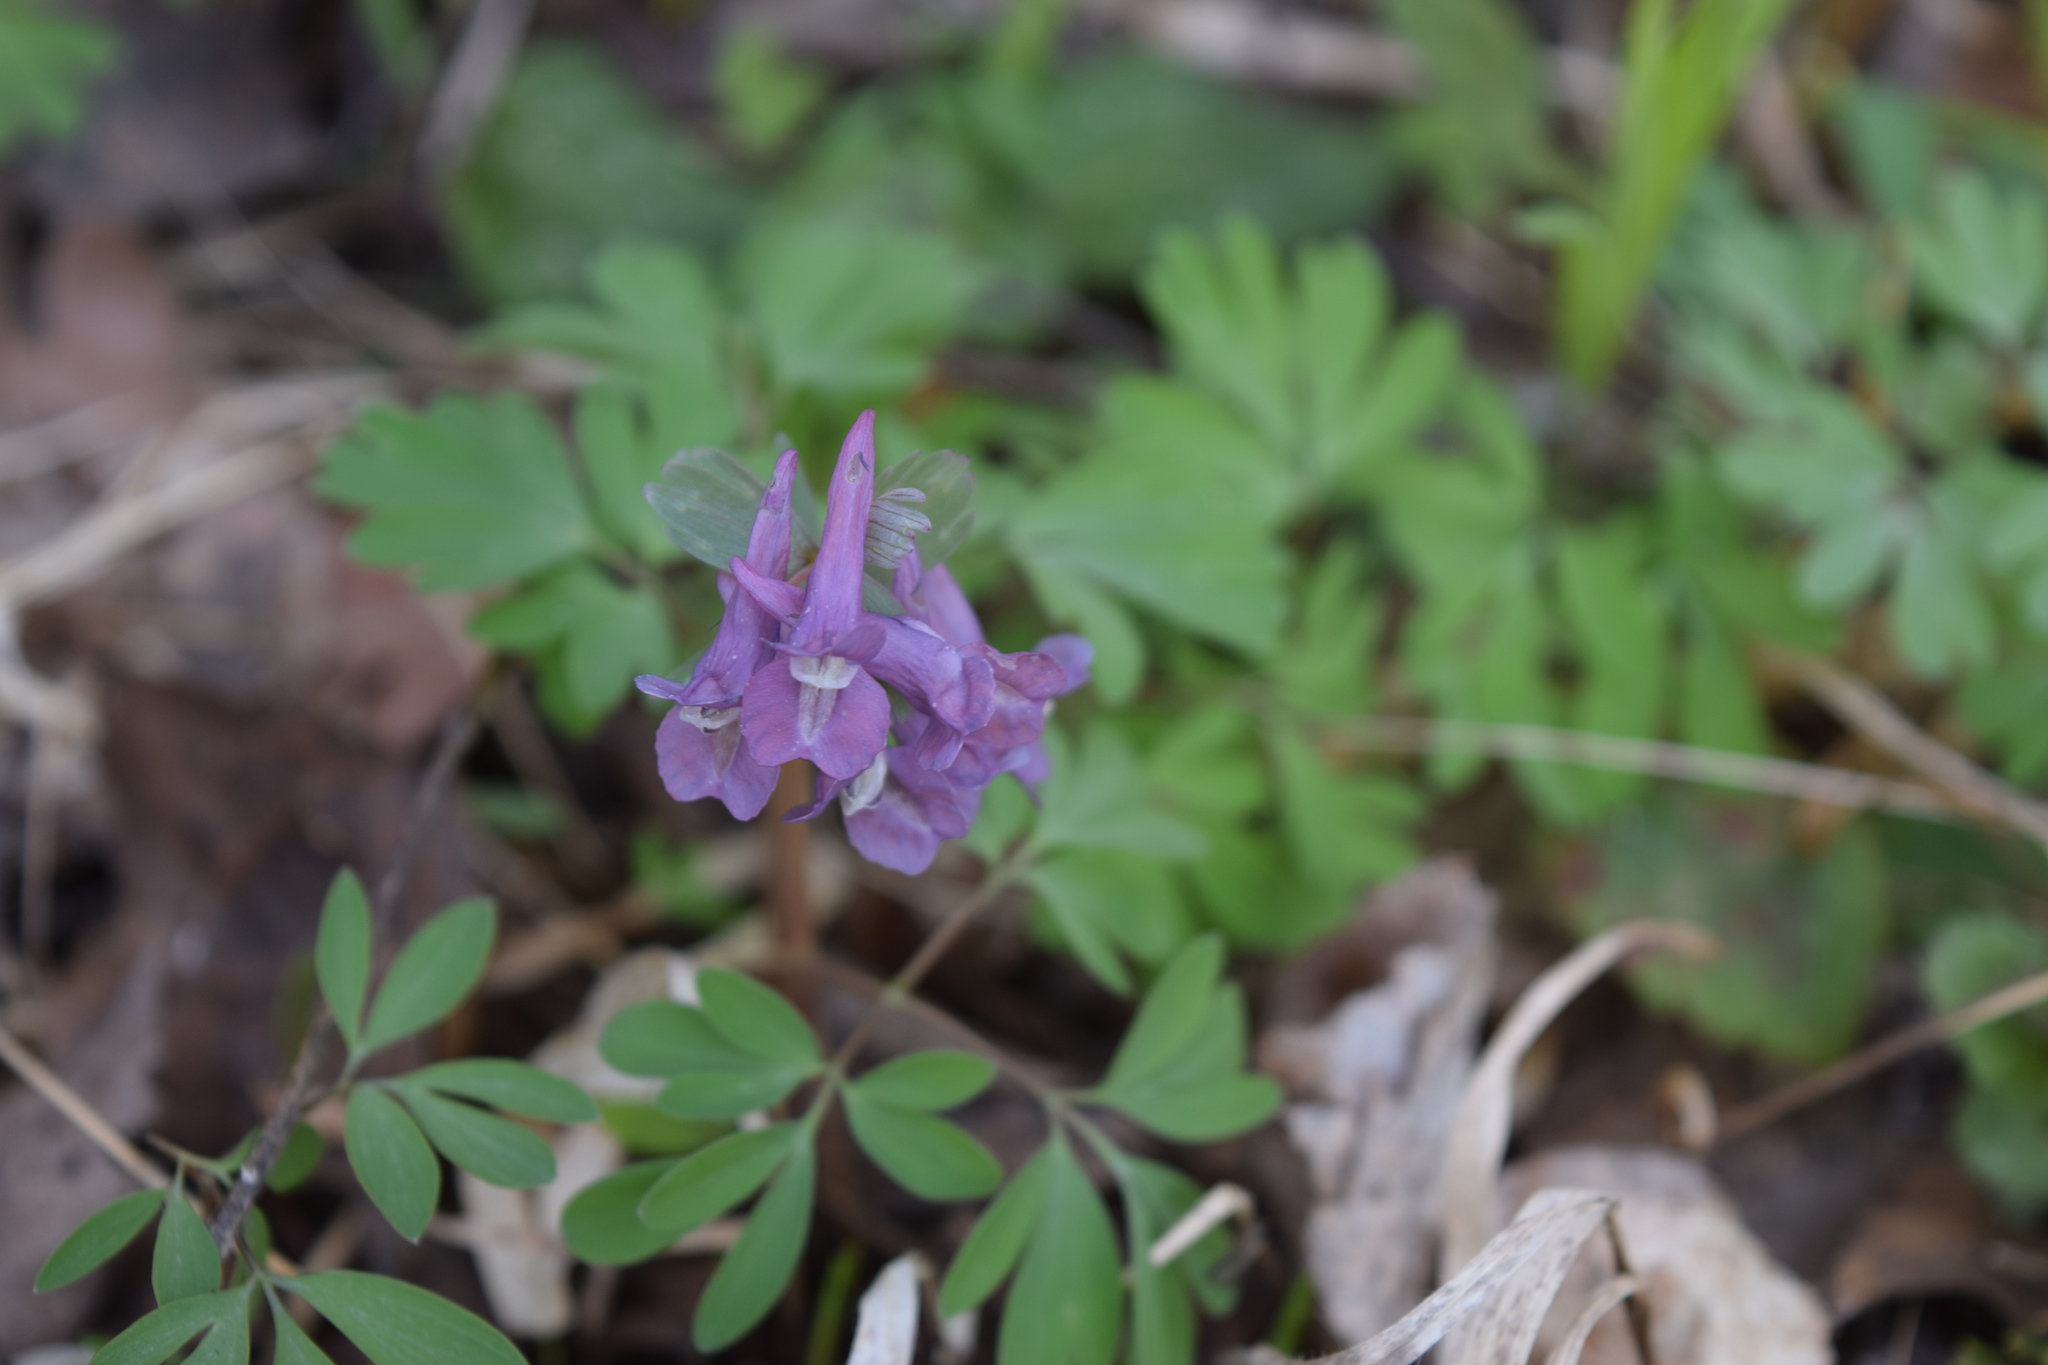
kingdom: Plantae
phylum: Tracheophyta
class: Magnoliopsida
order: Ranunculales
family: Papaveraceae
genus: Corydalis
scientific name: Corydalis solida
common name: Bird-in-a-bush
